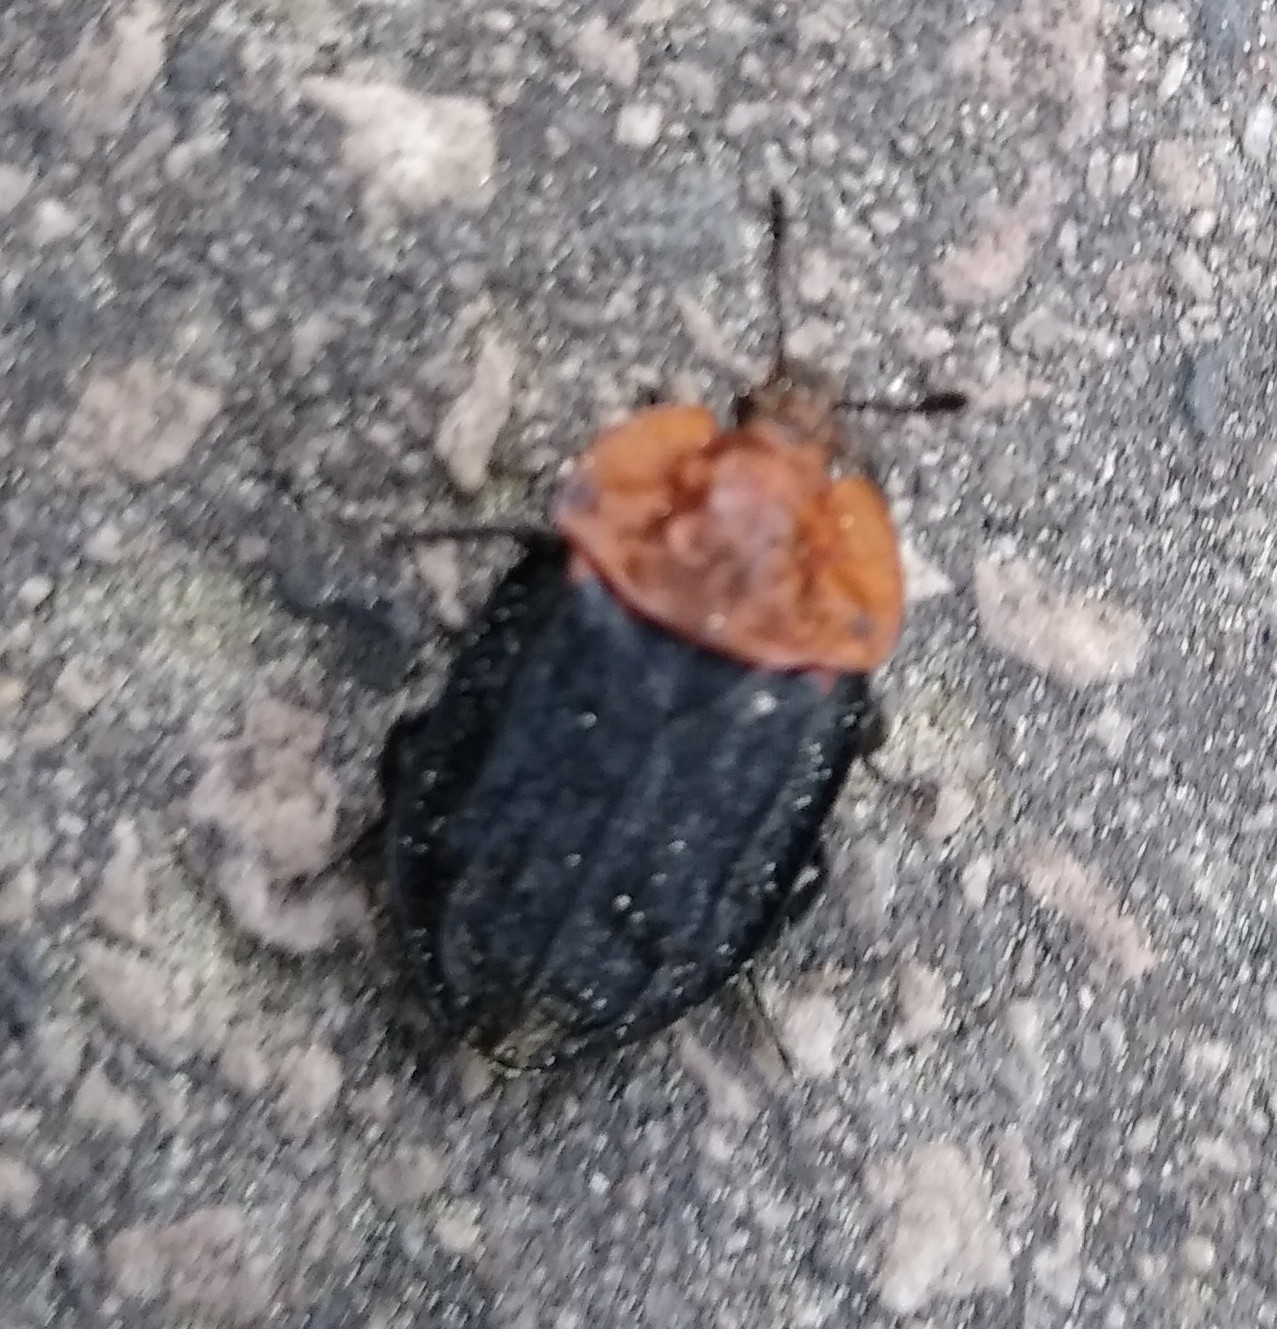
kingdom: Animalia
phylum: Arthropoda
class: Insecta
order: Coleoptera
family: Staphylinidae
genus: Oiceoptoma
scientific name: Oiceoptoma thoracicum
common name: Red-breasted carrion beetle
